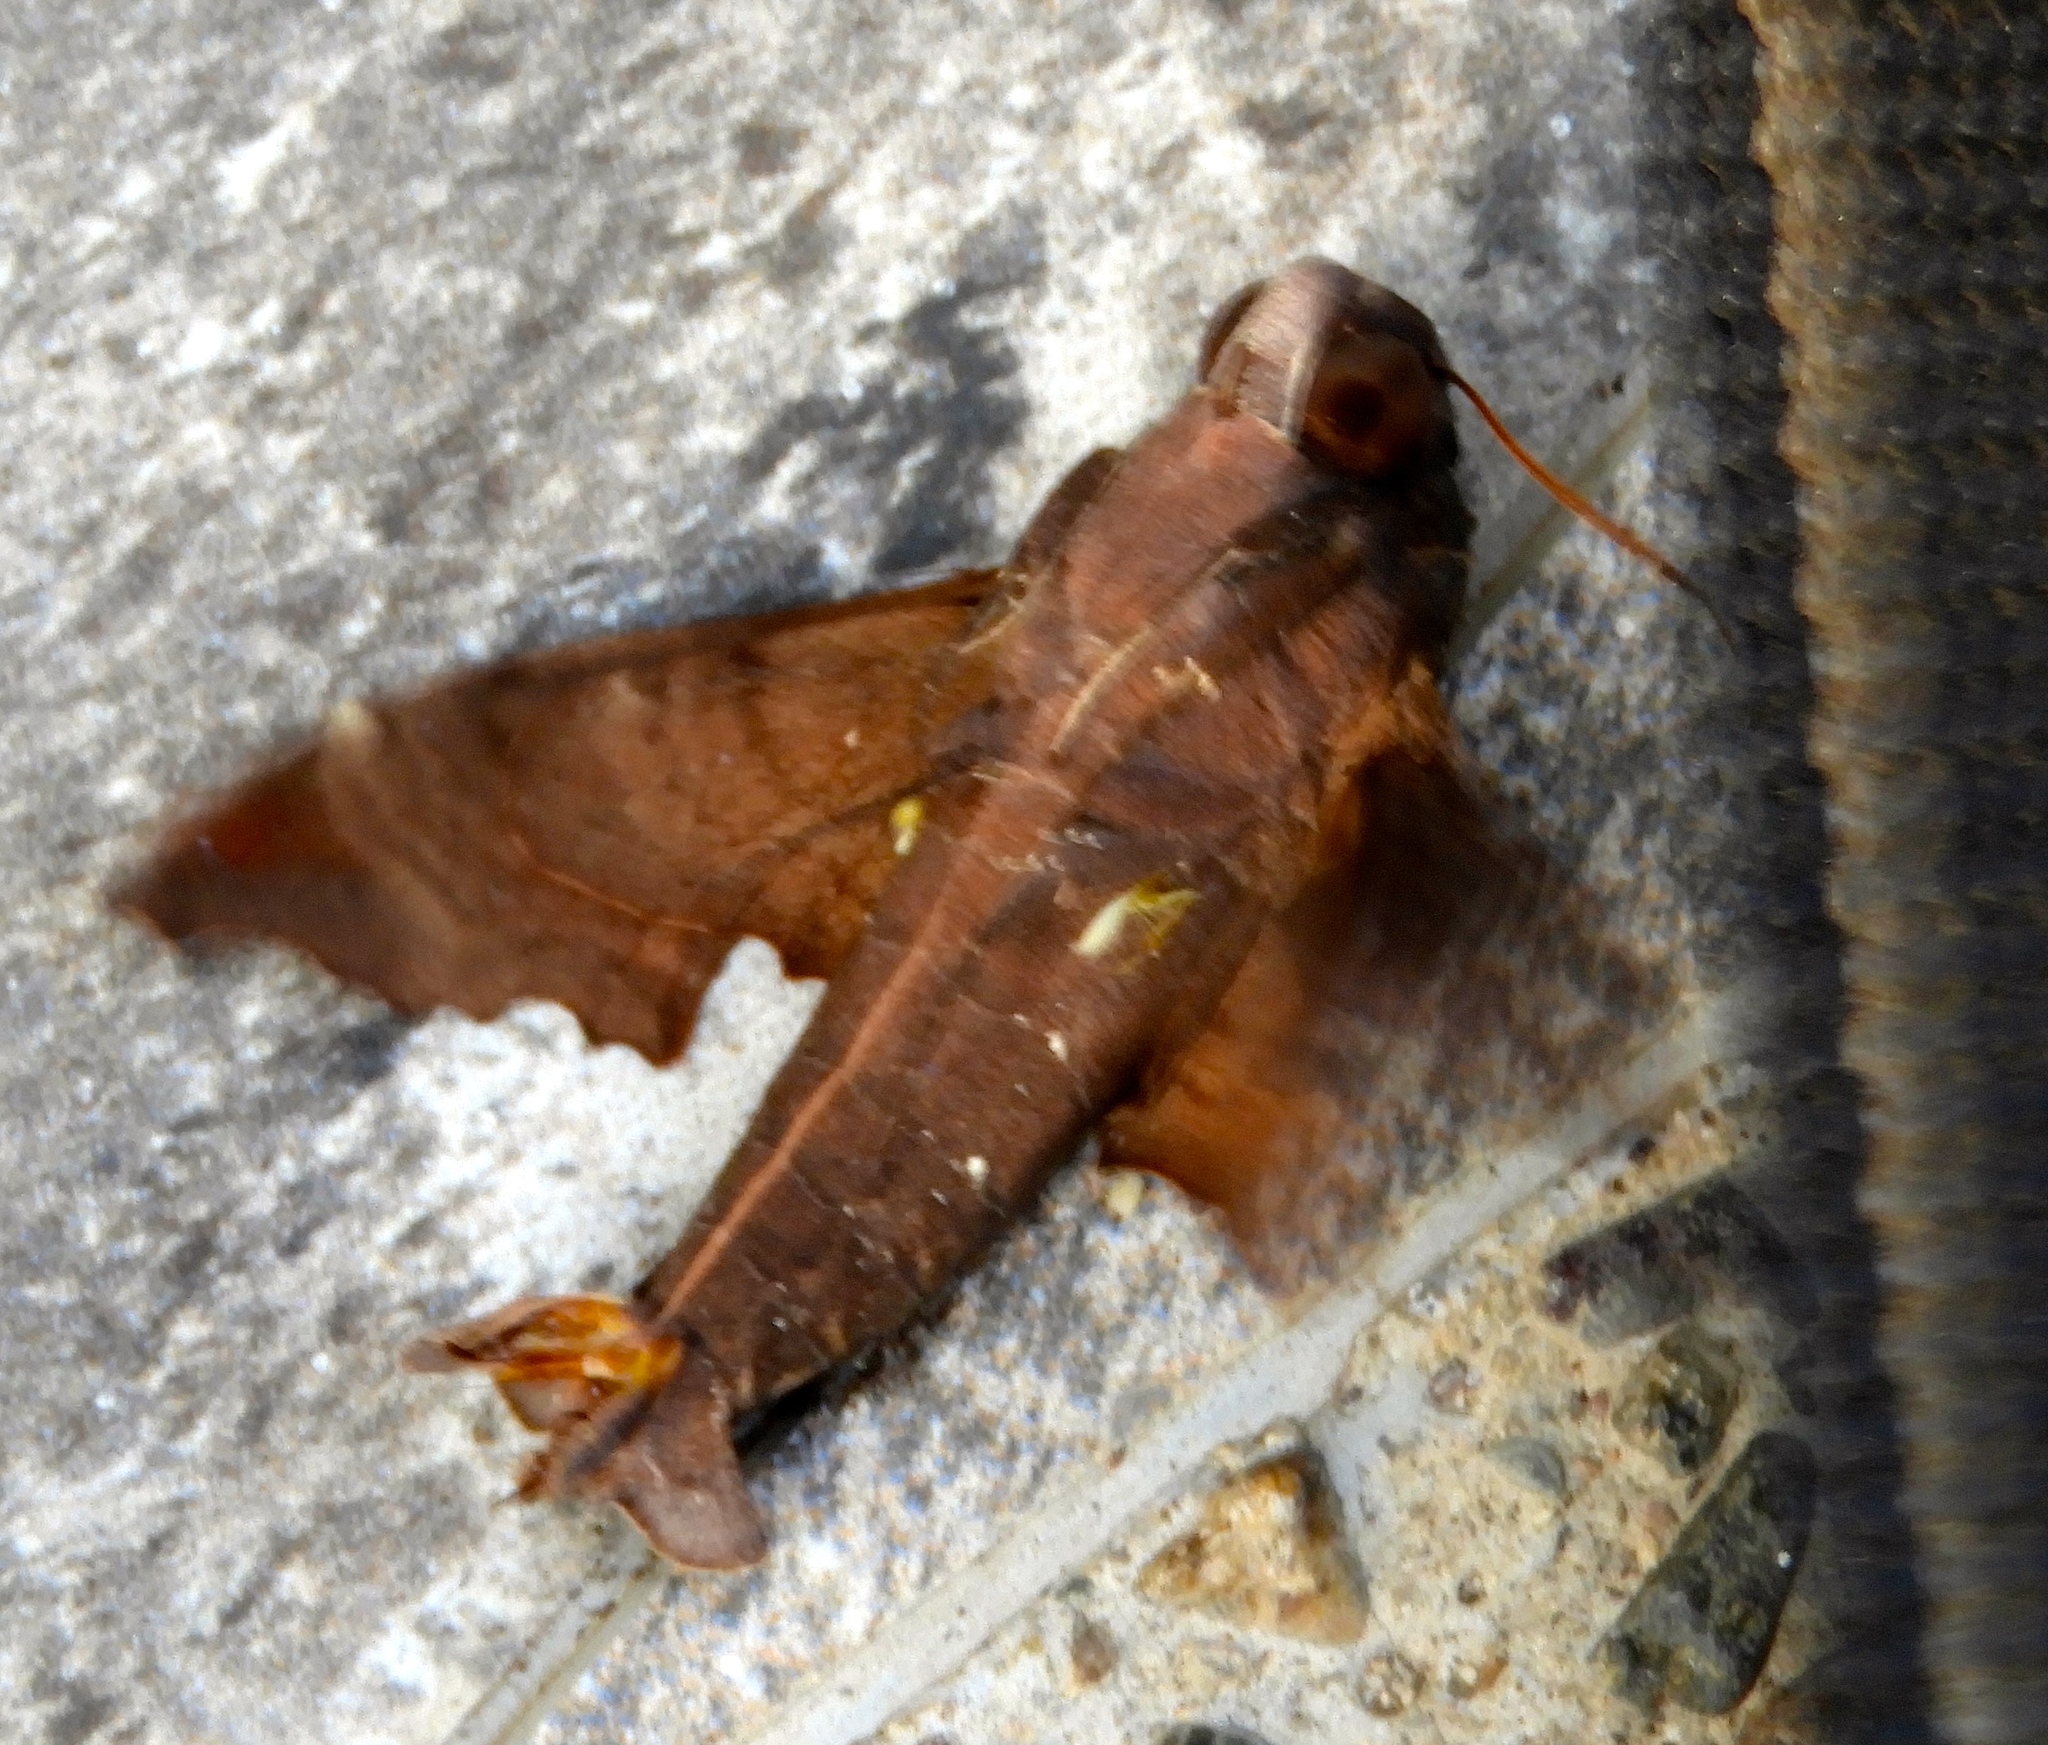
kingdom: Animalia
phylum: Arthropoda
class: Insecta
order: Lepidoptera
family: Sphingidae
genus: Enyo
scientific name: Enyo
